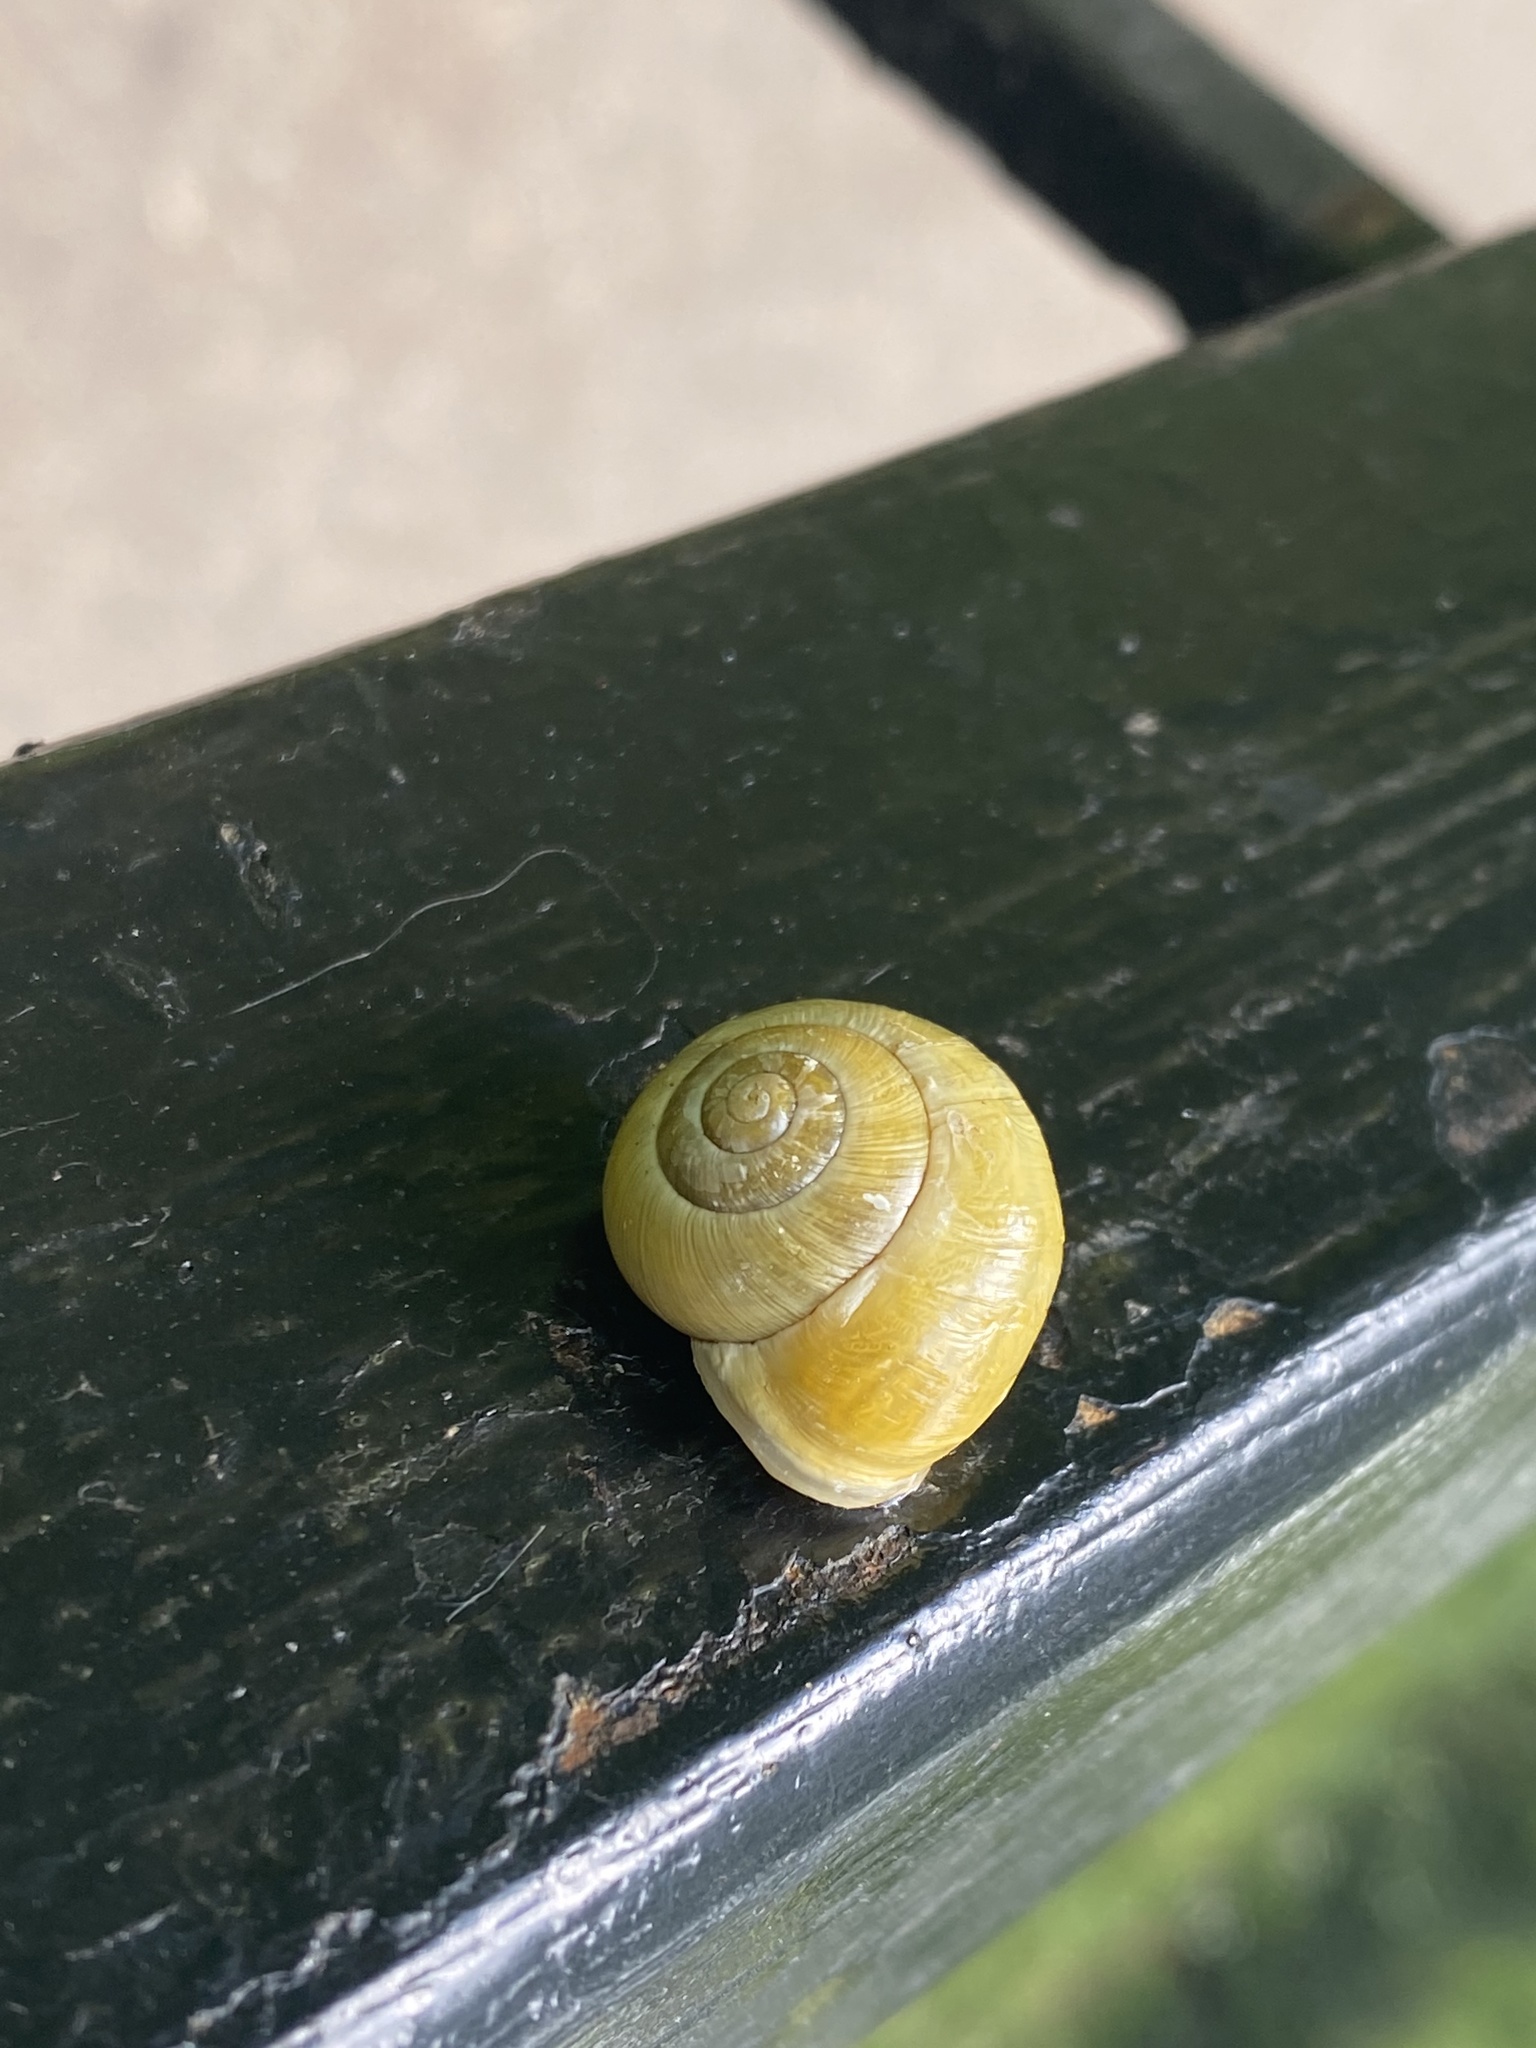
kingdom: Animalia
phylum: Mollusca
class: Gastropoda
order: Stylommatophora
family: Helicidae
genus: Cepaea
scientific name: Cepaea hortensis
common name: White-lip gardensnail
